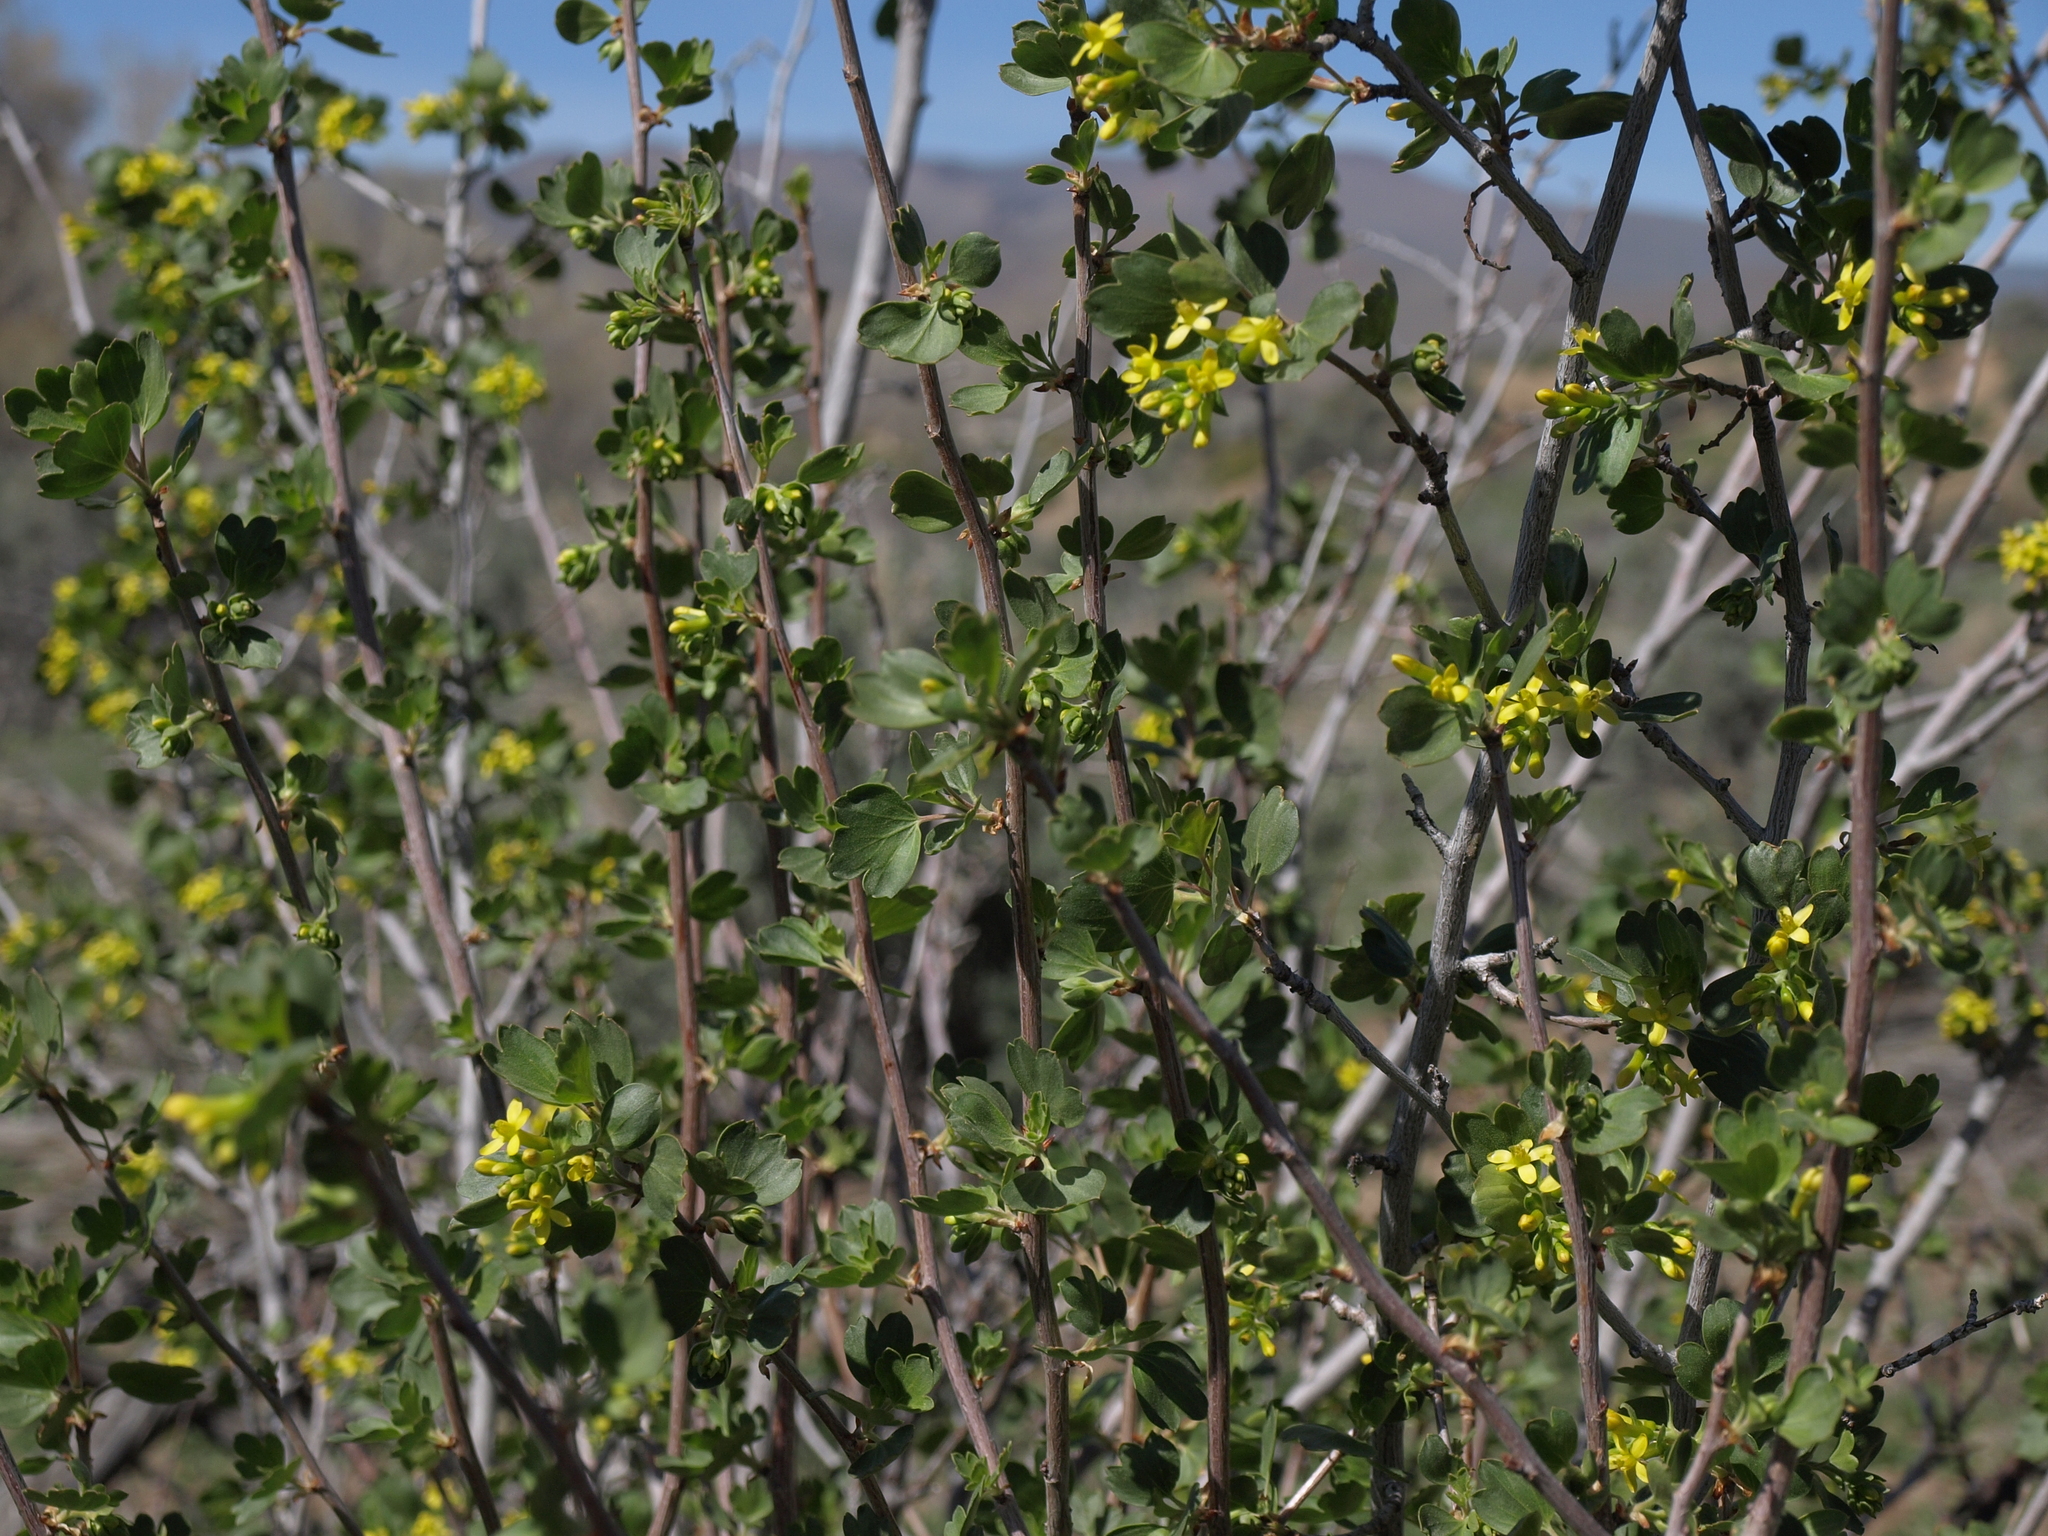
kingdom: Plantae
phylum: Tracheophyta
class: Magnoliopsida
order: Saxifragales
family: Grossulariaceae
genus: Ribes
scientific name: Ribes aureum
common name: Golden currant
